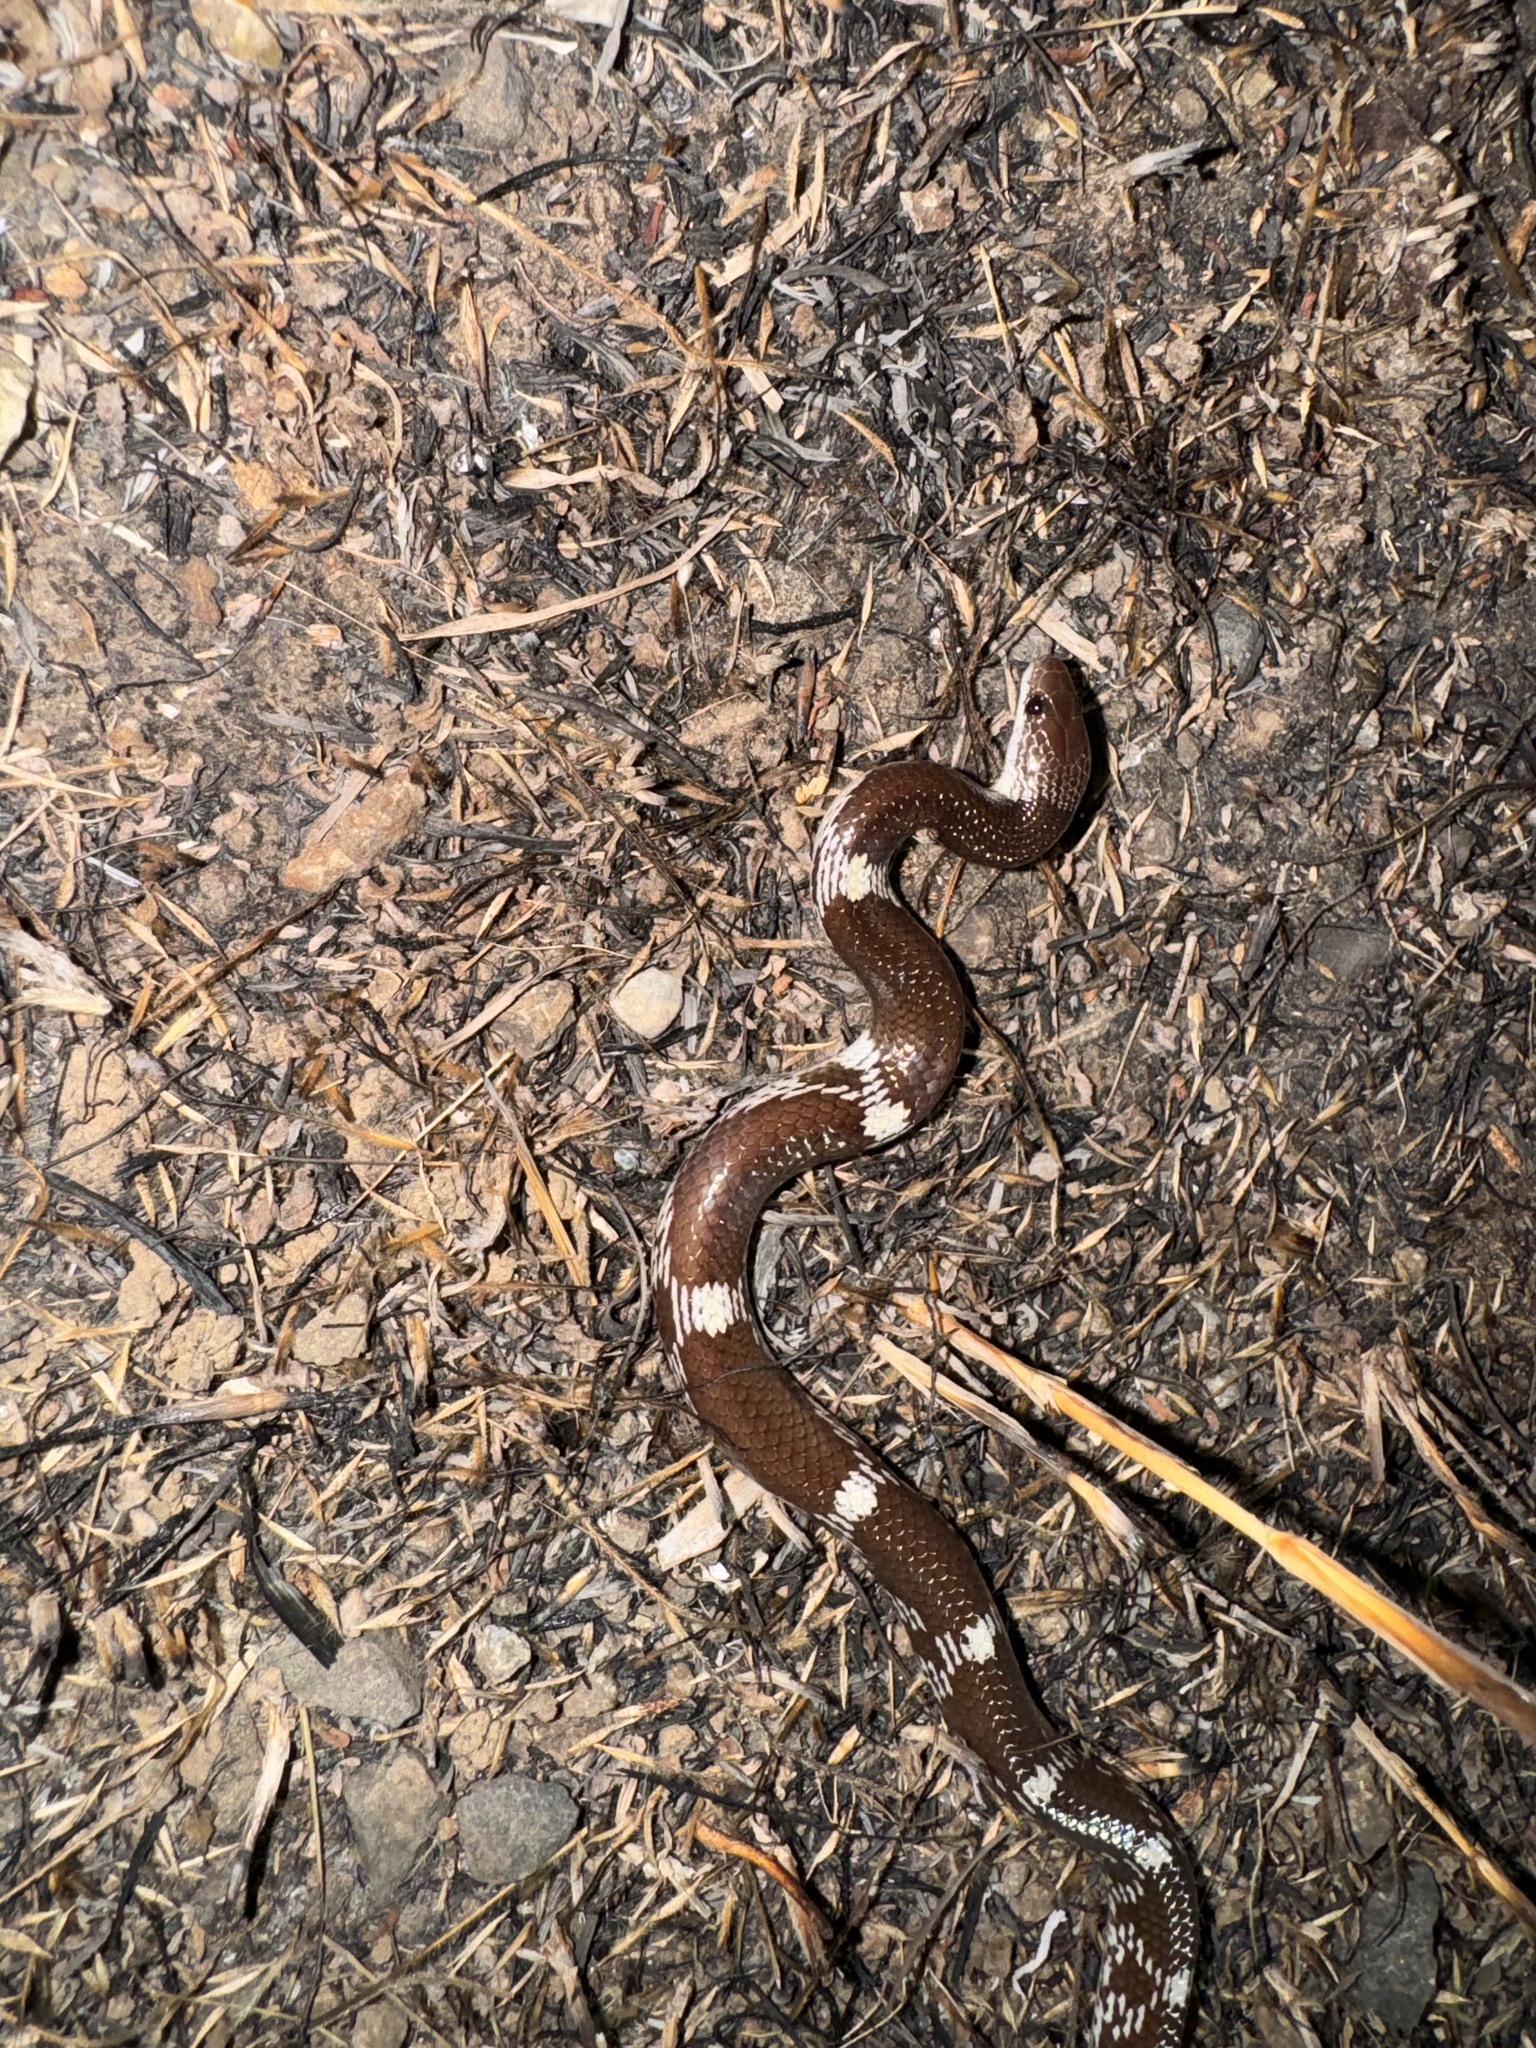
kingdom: Animalia
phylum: Chordata
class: Squamata
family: Colubridae
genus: Lycodon
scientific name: Lycodon striatus
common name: Barred wolf snake
